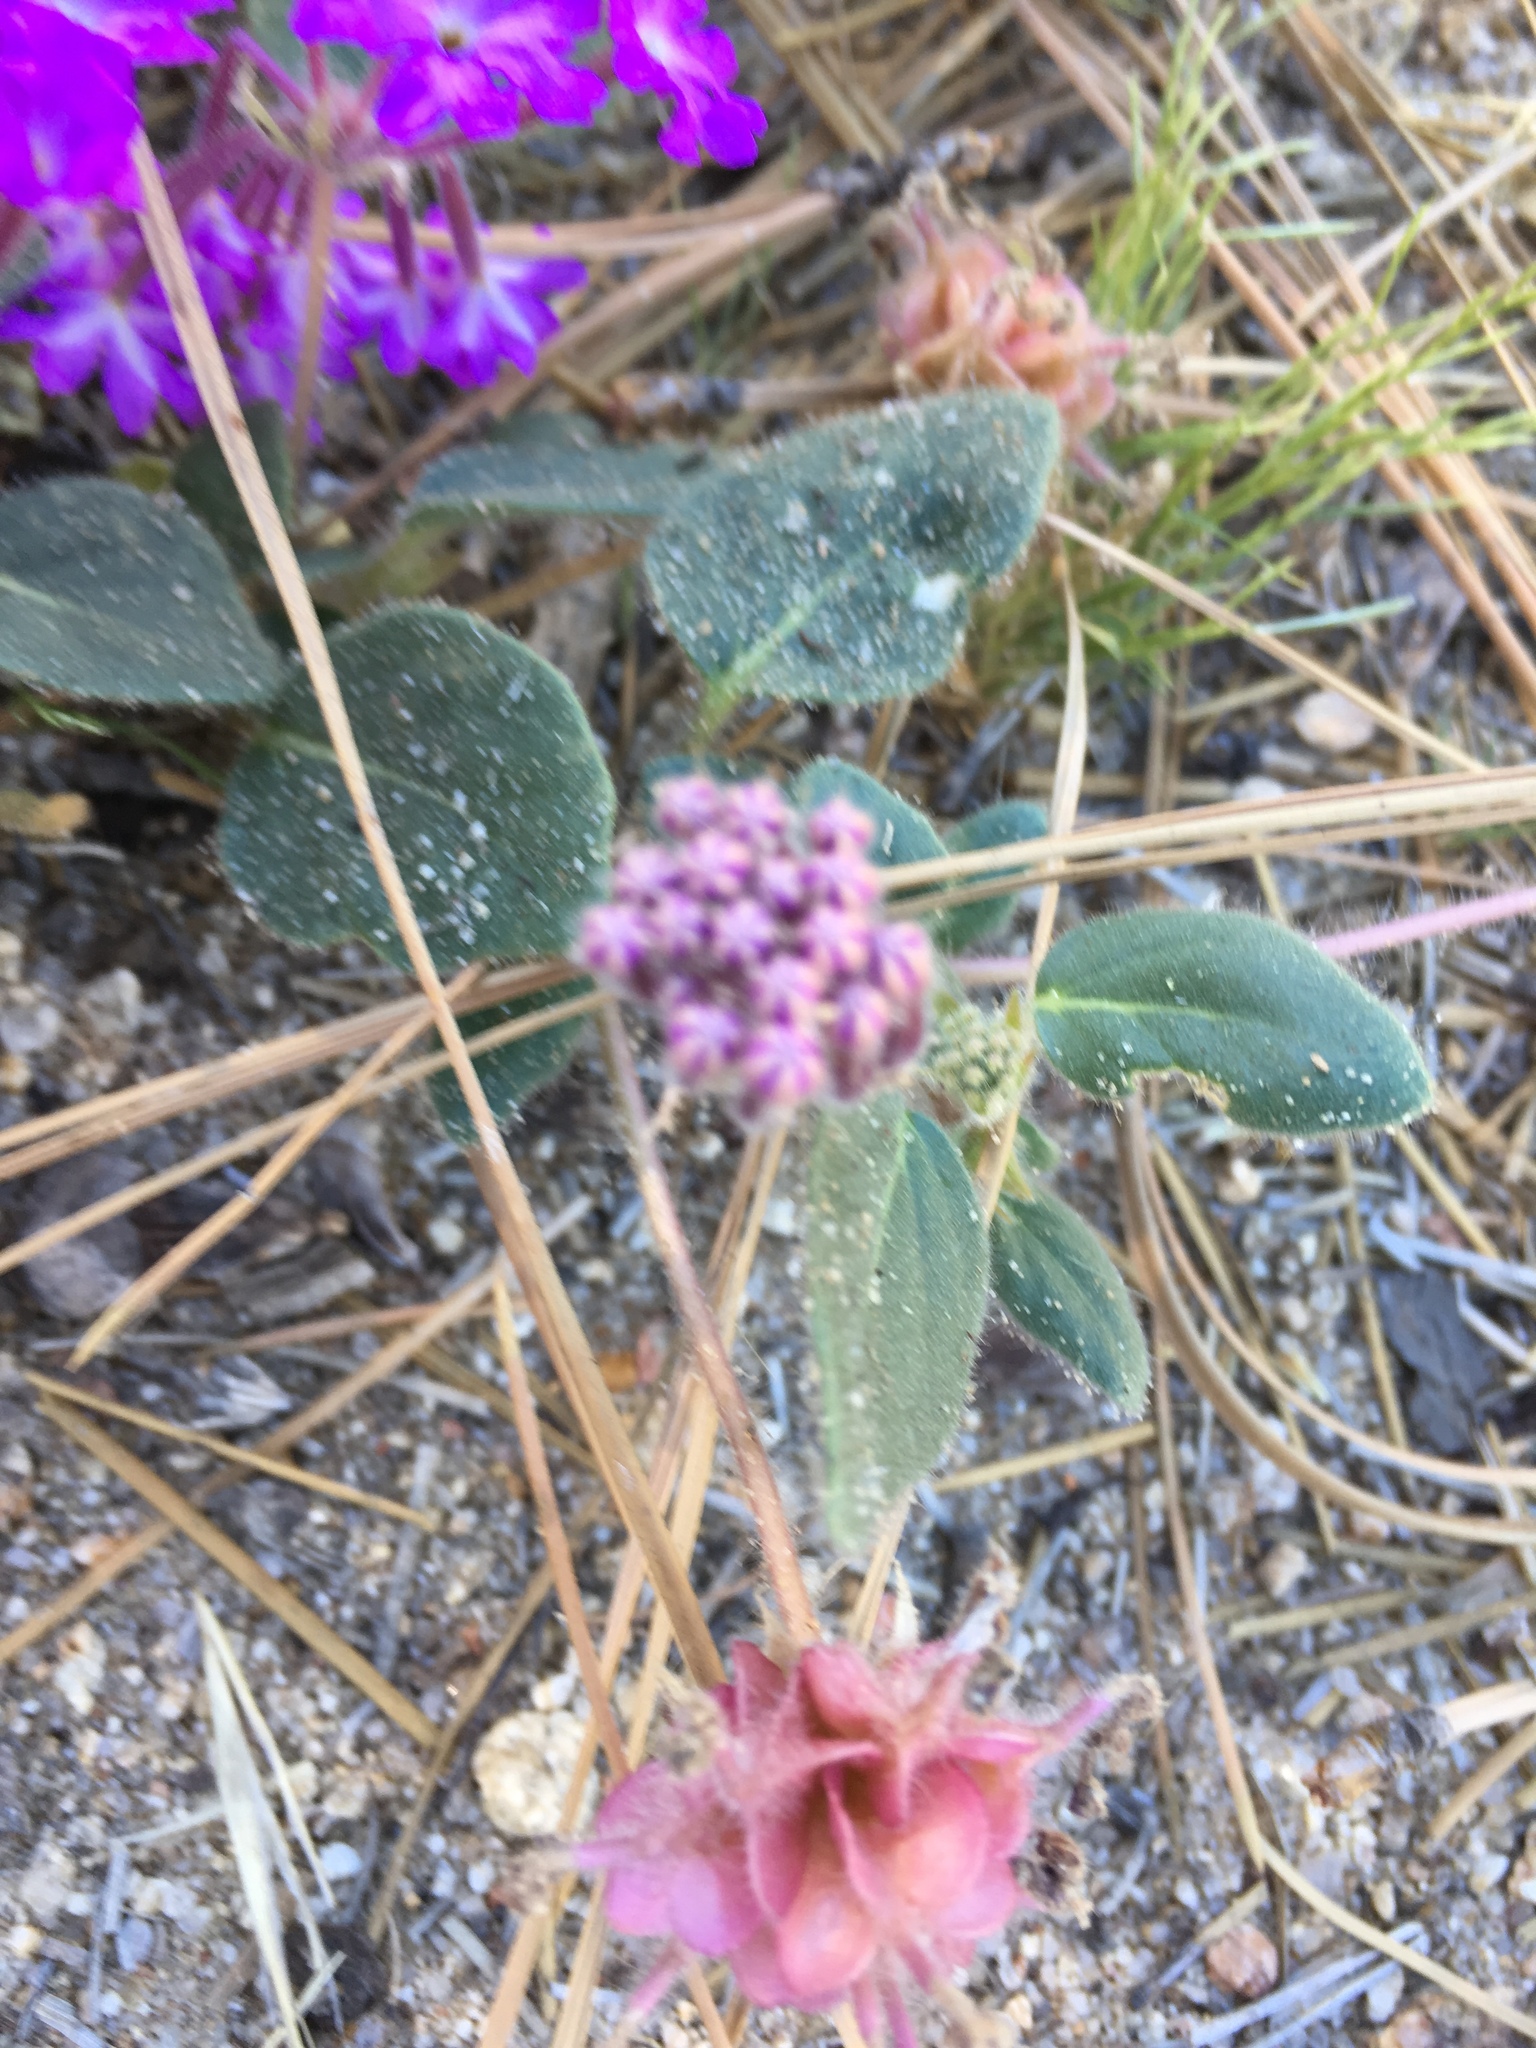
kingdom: Plantae
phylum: Tracheophyta
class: Magnoliopsida
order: Caryophyllales
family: Nyctaginaceae
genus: Abronia
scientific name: Abronia villosa
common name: Desert sand-verbena
